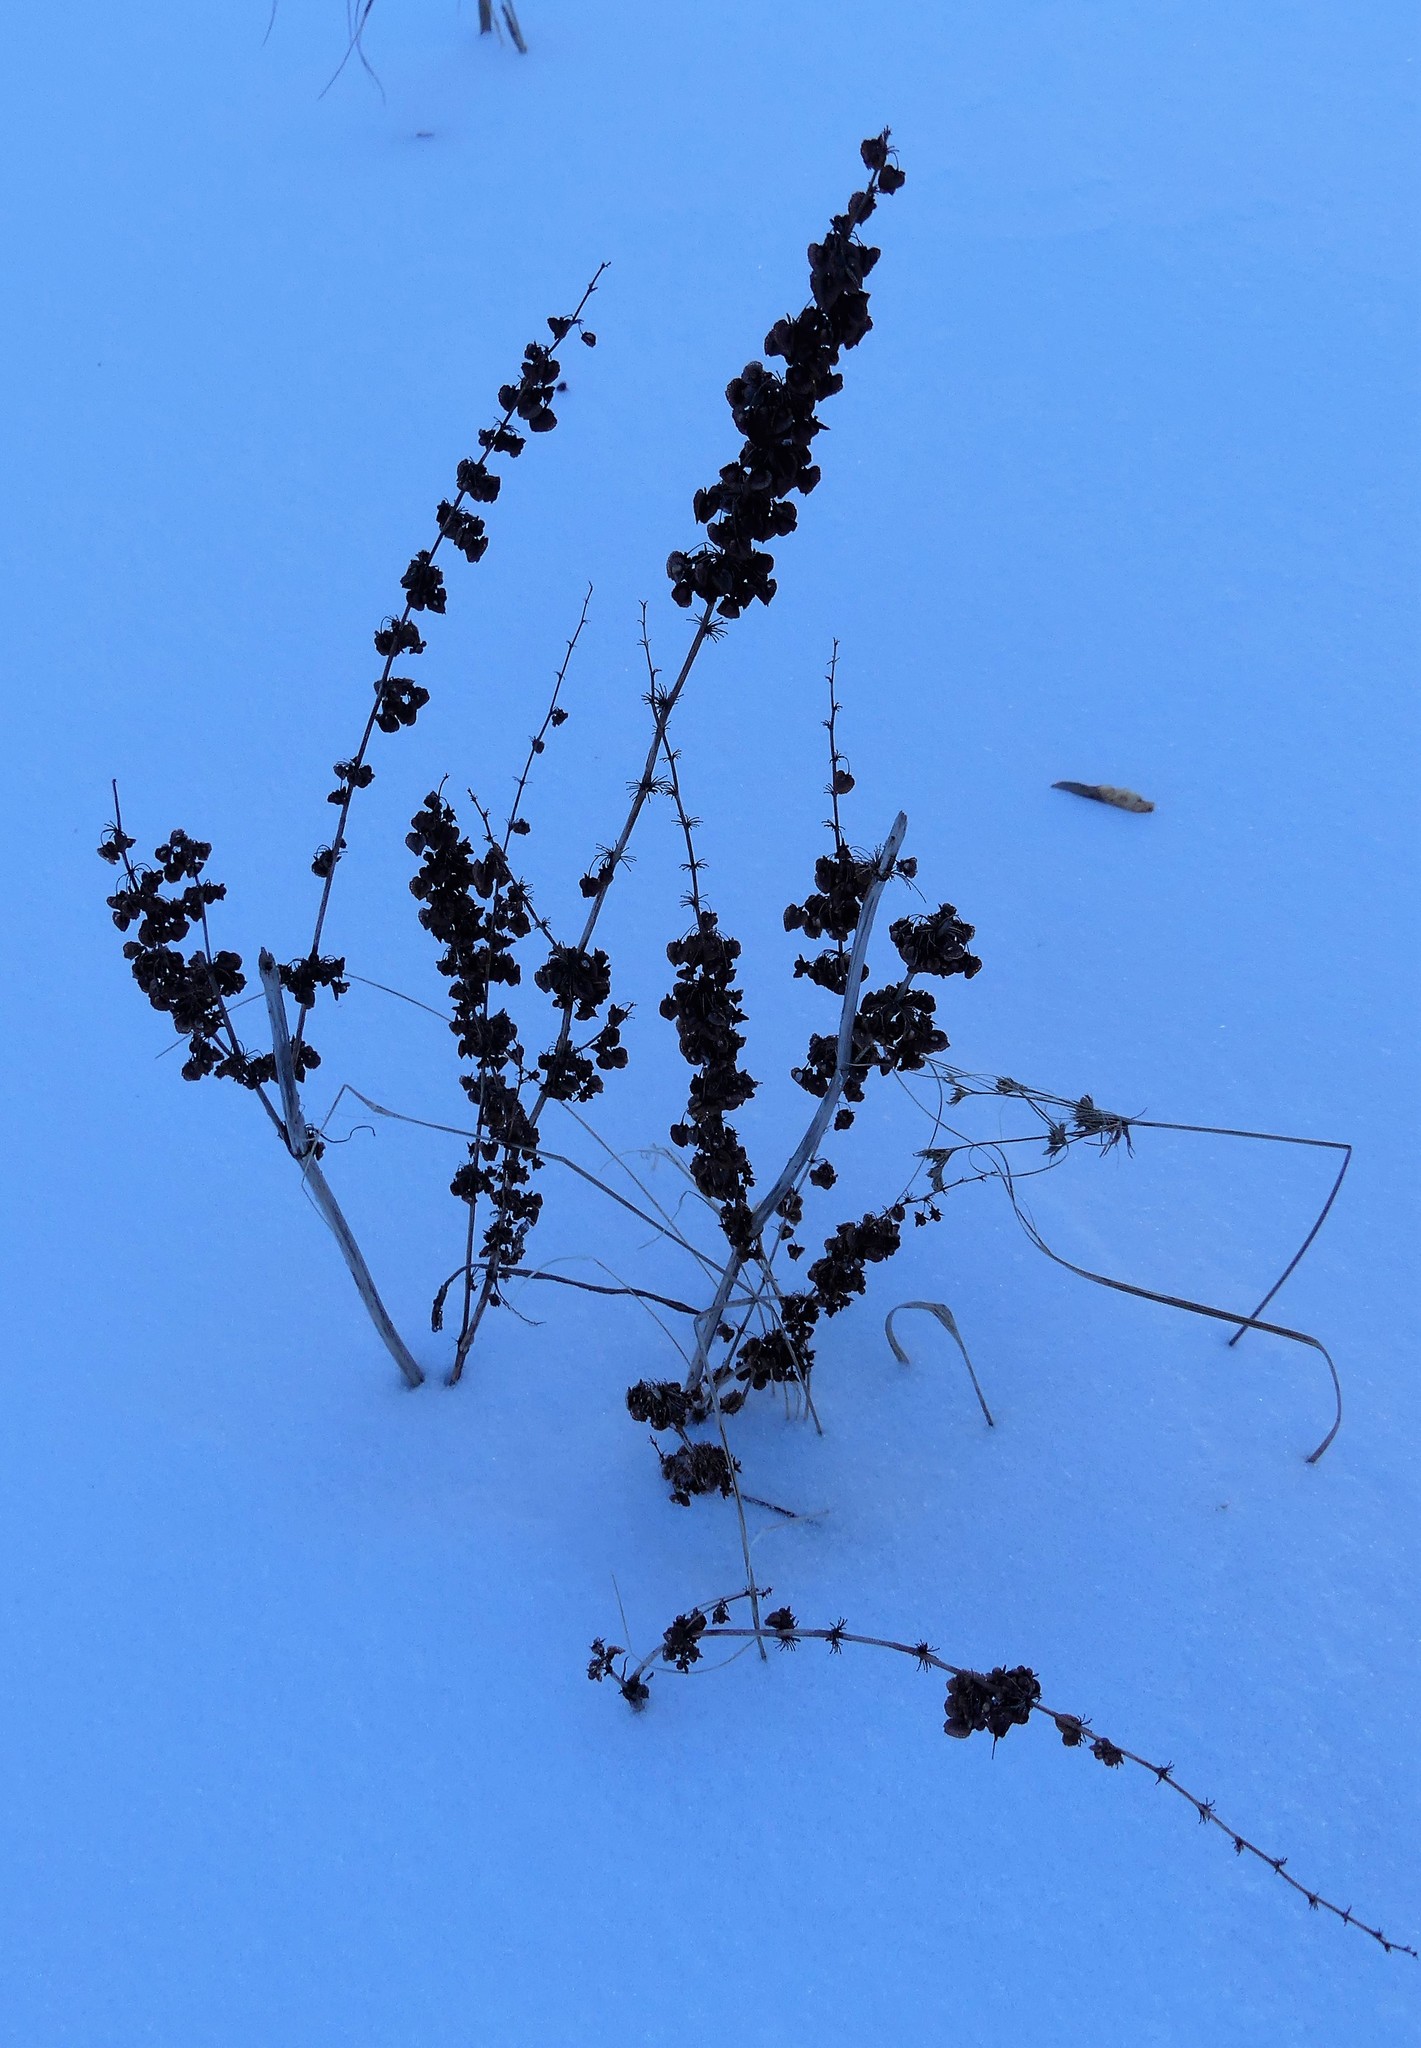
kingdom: Plantae
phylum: Tracheophyta
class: Magnoliopsida
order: Caryophyllales
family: Polygonaceae
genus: Rumex
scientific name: Rumex crispus
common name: Curled dock
